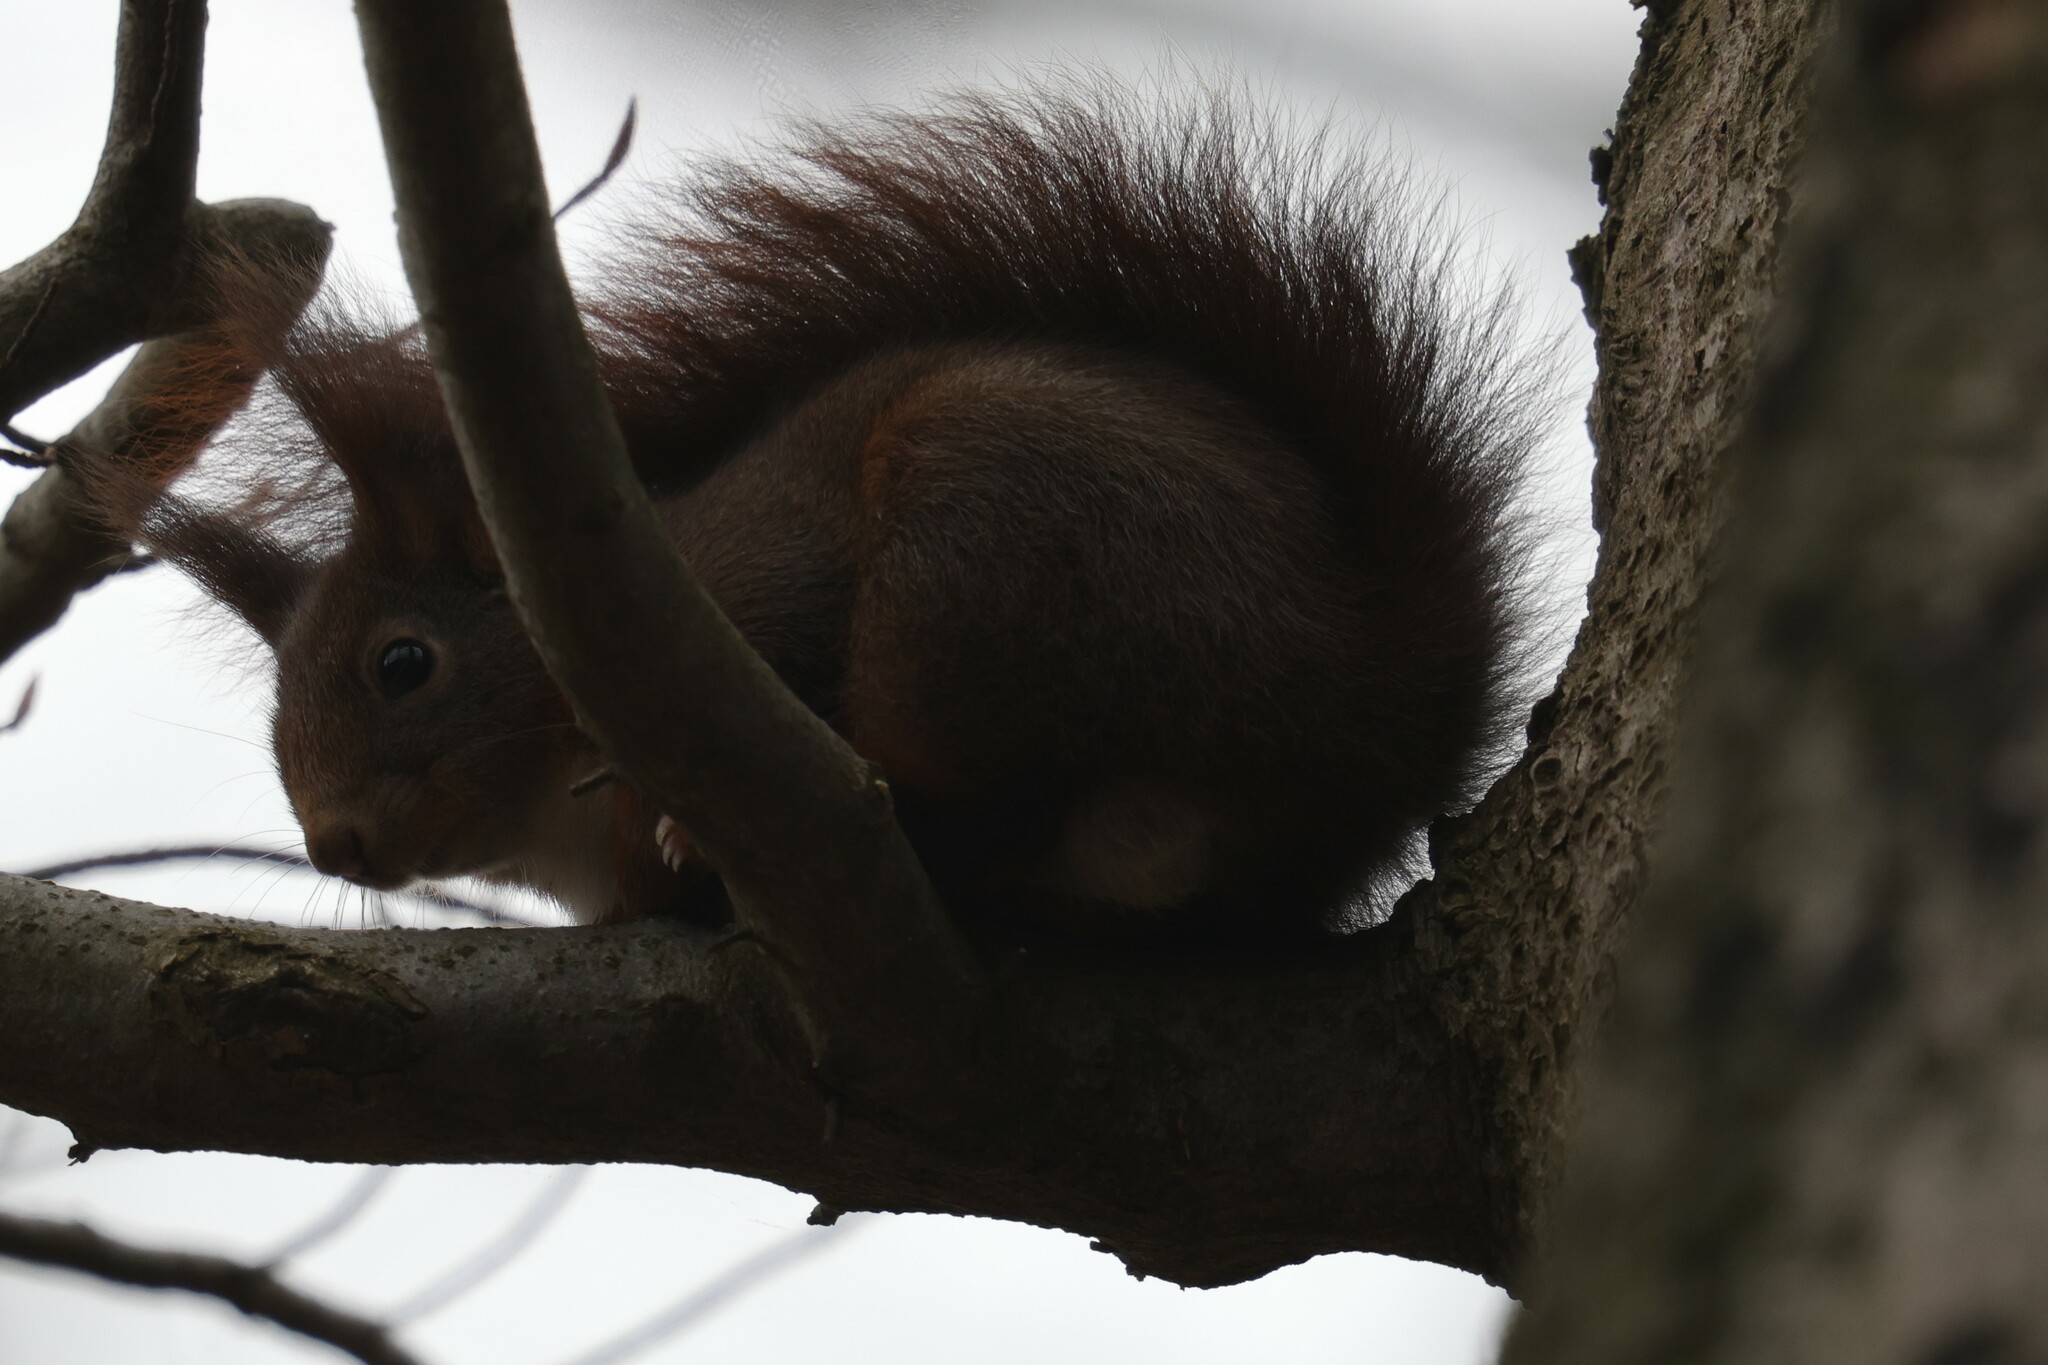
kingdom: Animalia
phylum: Chordata
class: Mammalia
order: Rodentia
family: Sciuridae
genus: Sciurus
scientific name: Sciurus vulgaris
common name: Eurasian red squirrel
